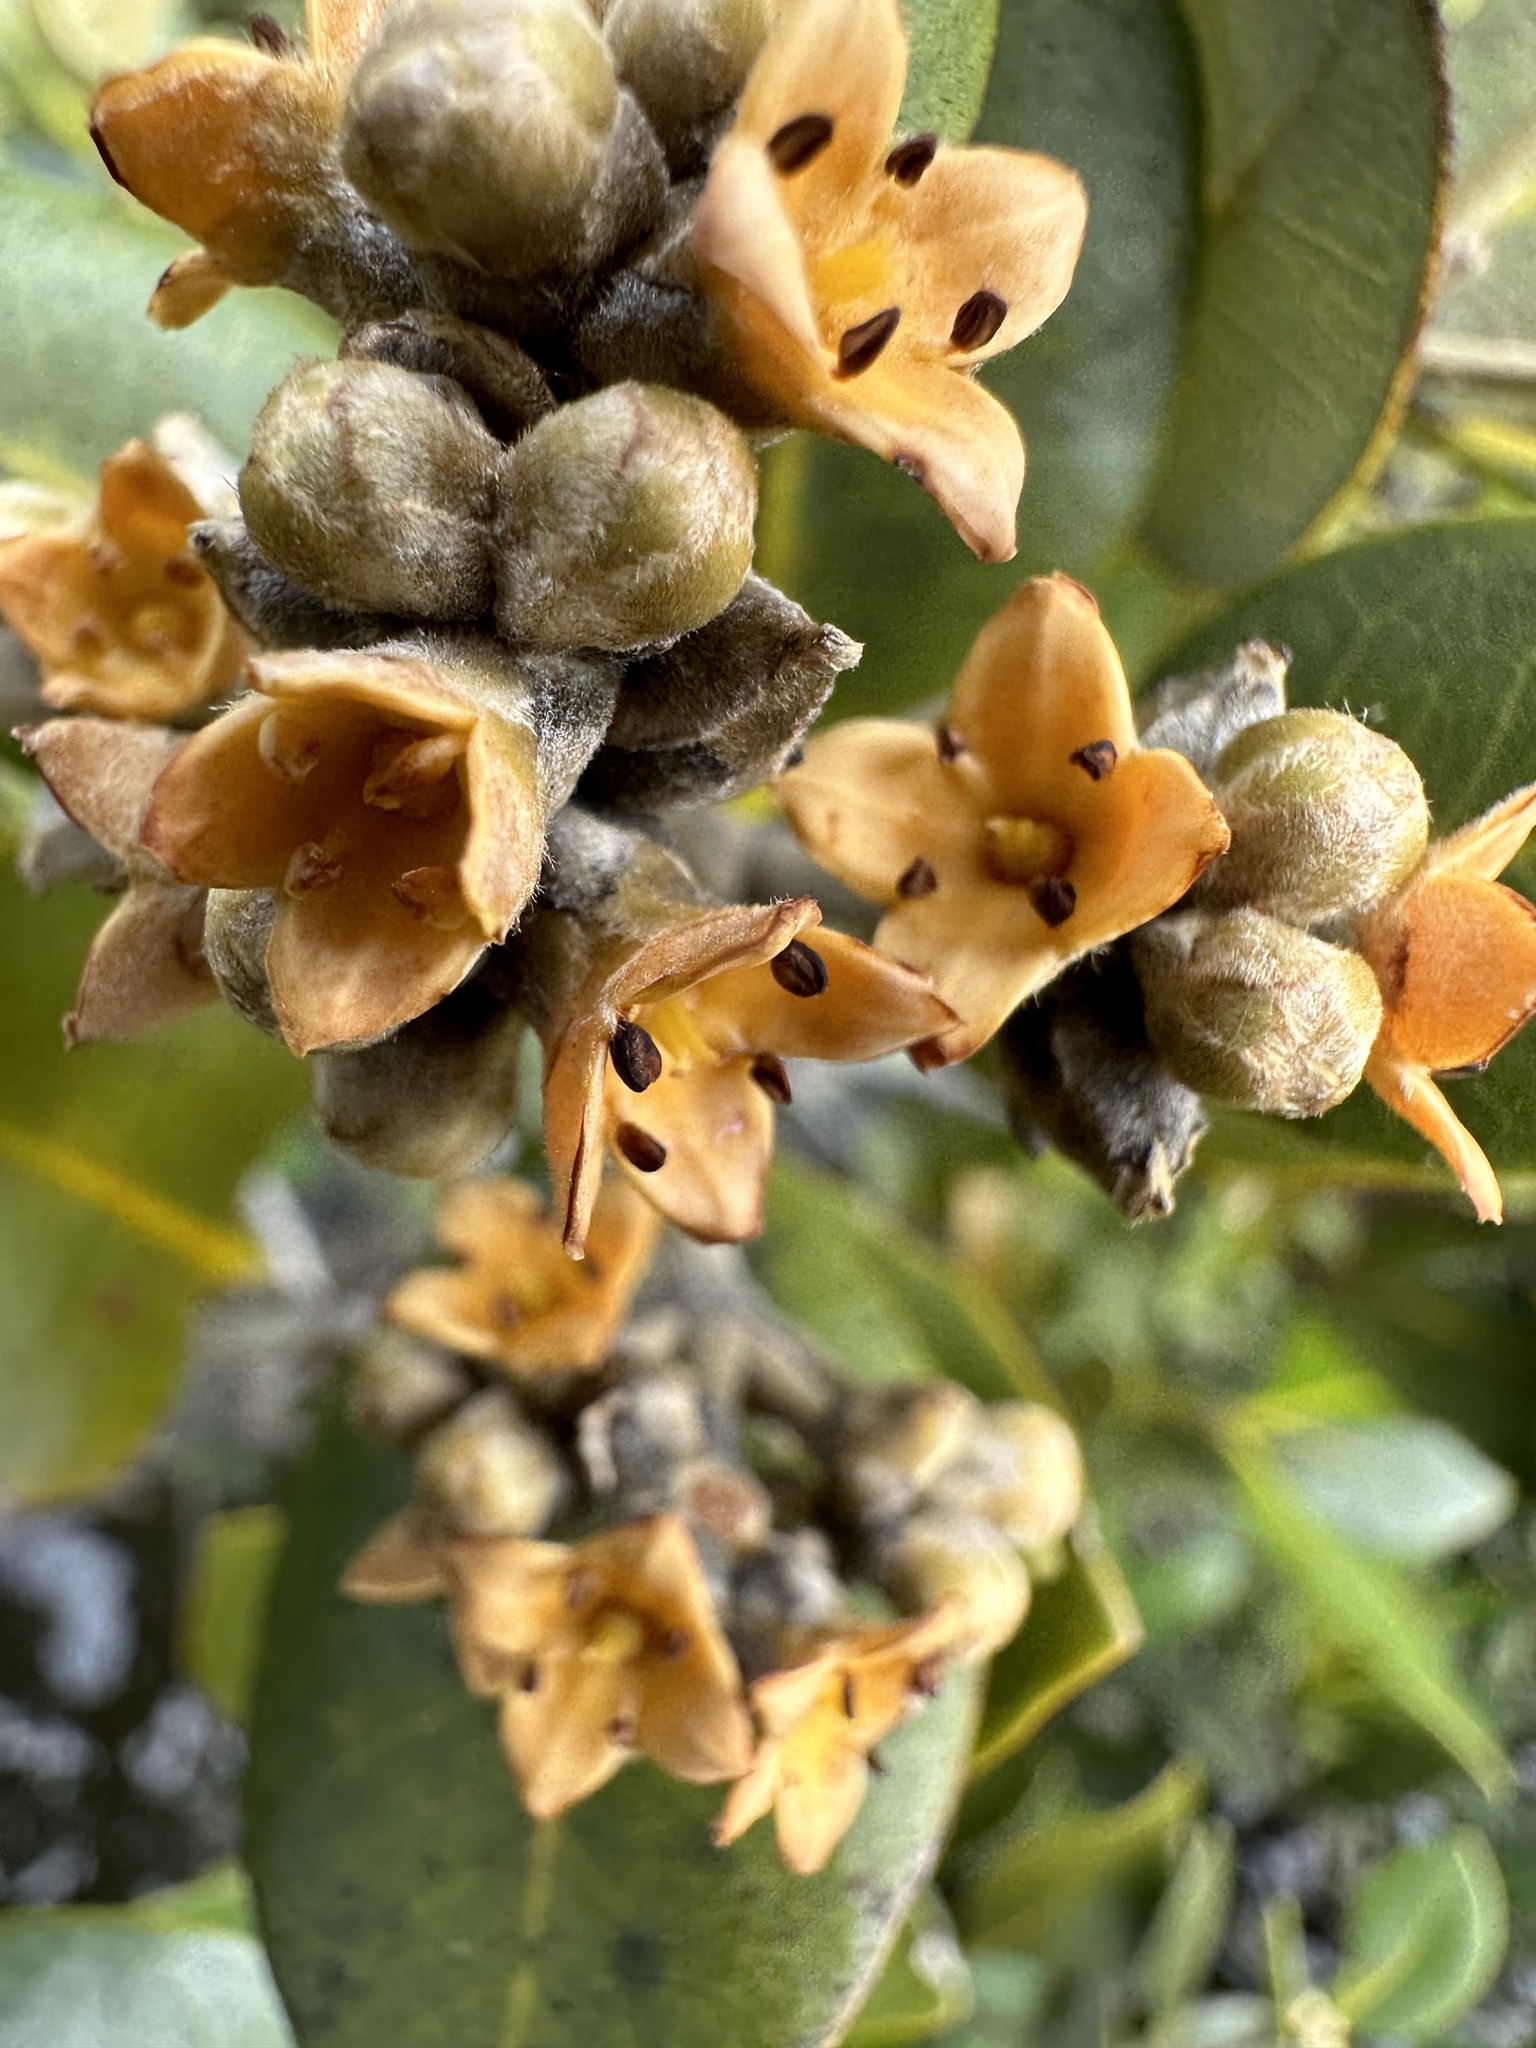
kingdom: Plantae
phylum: Tracheophyta
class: Magnoliopsida
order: Lamiales
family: Acanthaceae
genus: Avicennia
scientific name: Avicennia marina
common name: Gray mangrove
